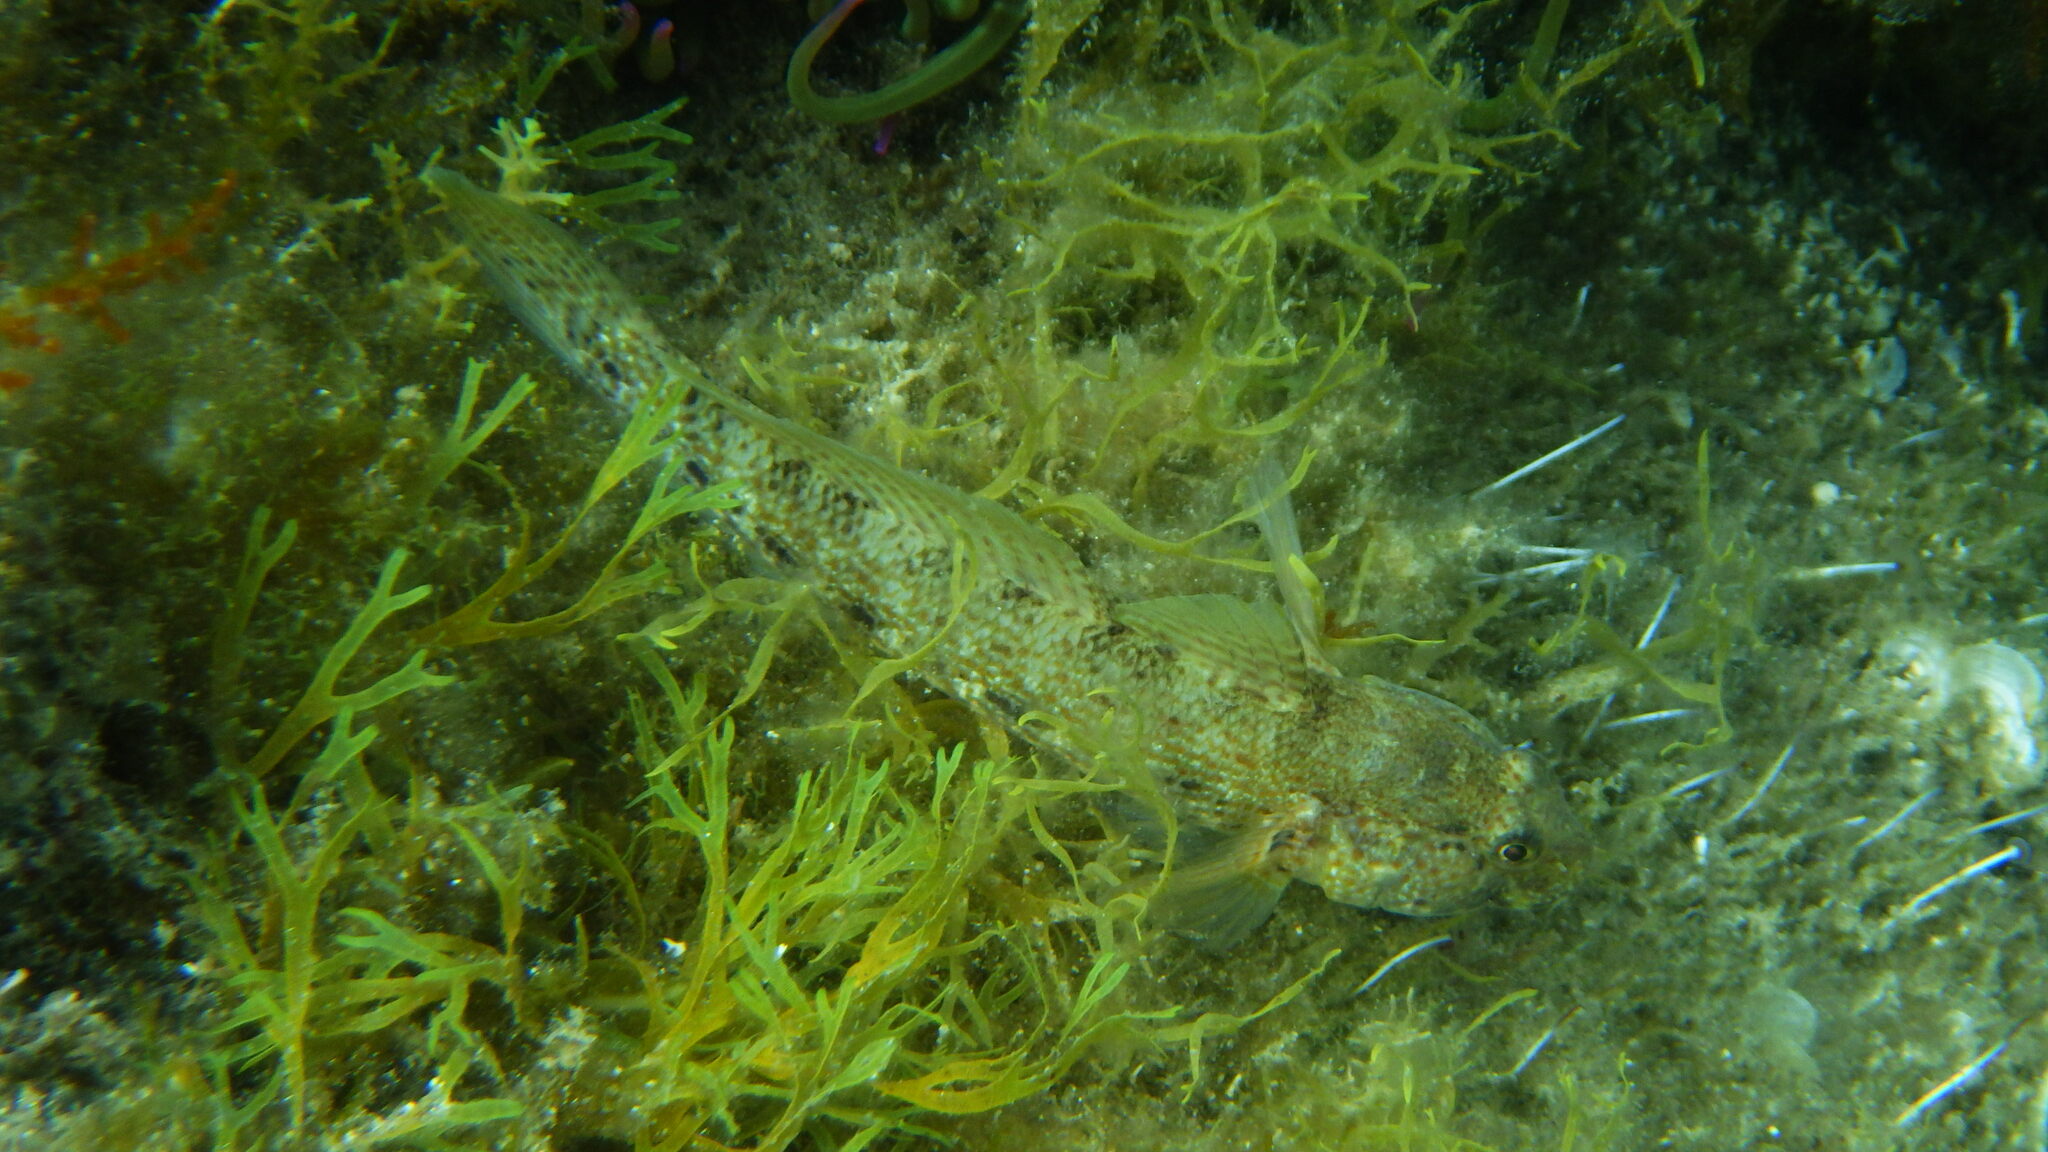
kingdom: Animalia
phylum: Chordata
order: Perciformes
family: Gobiidae
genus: Gobius
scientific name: Gobius incognitus
